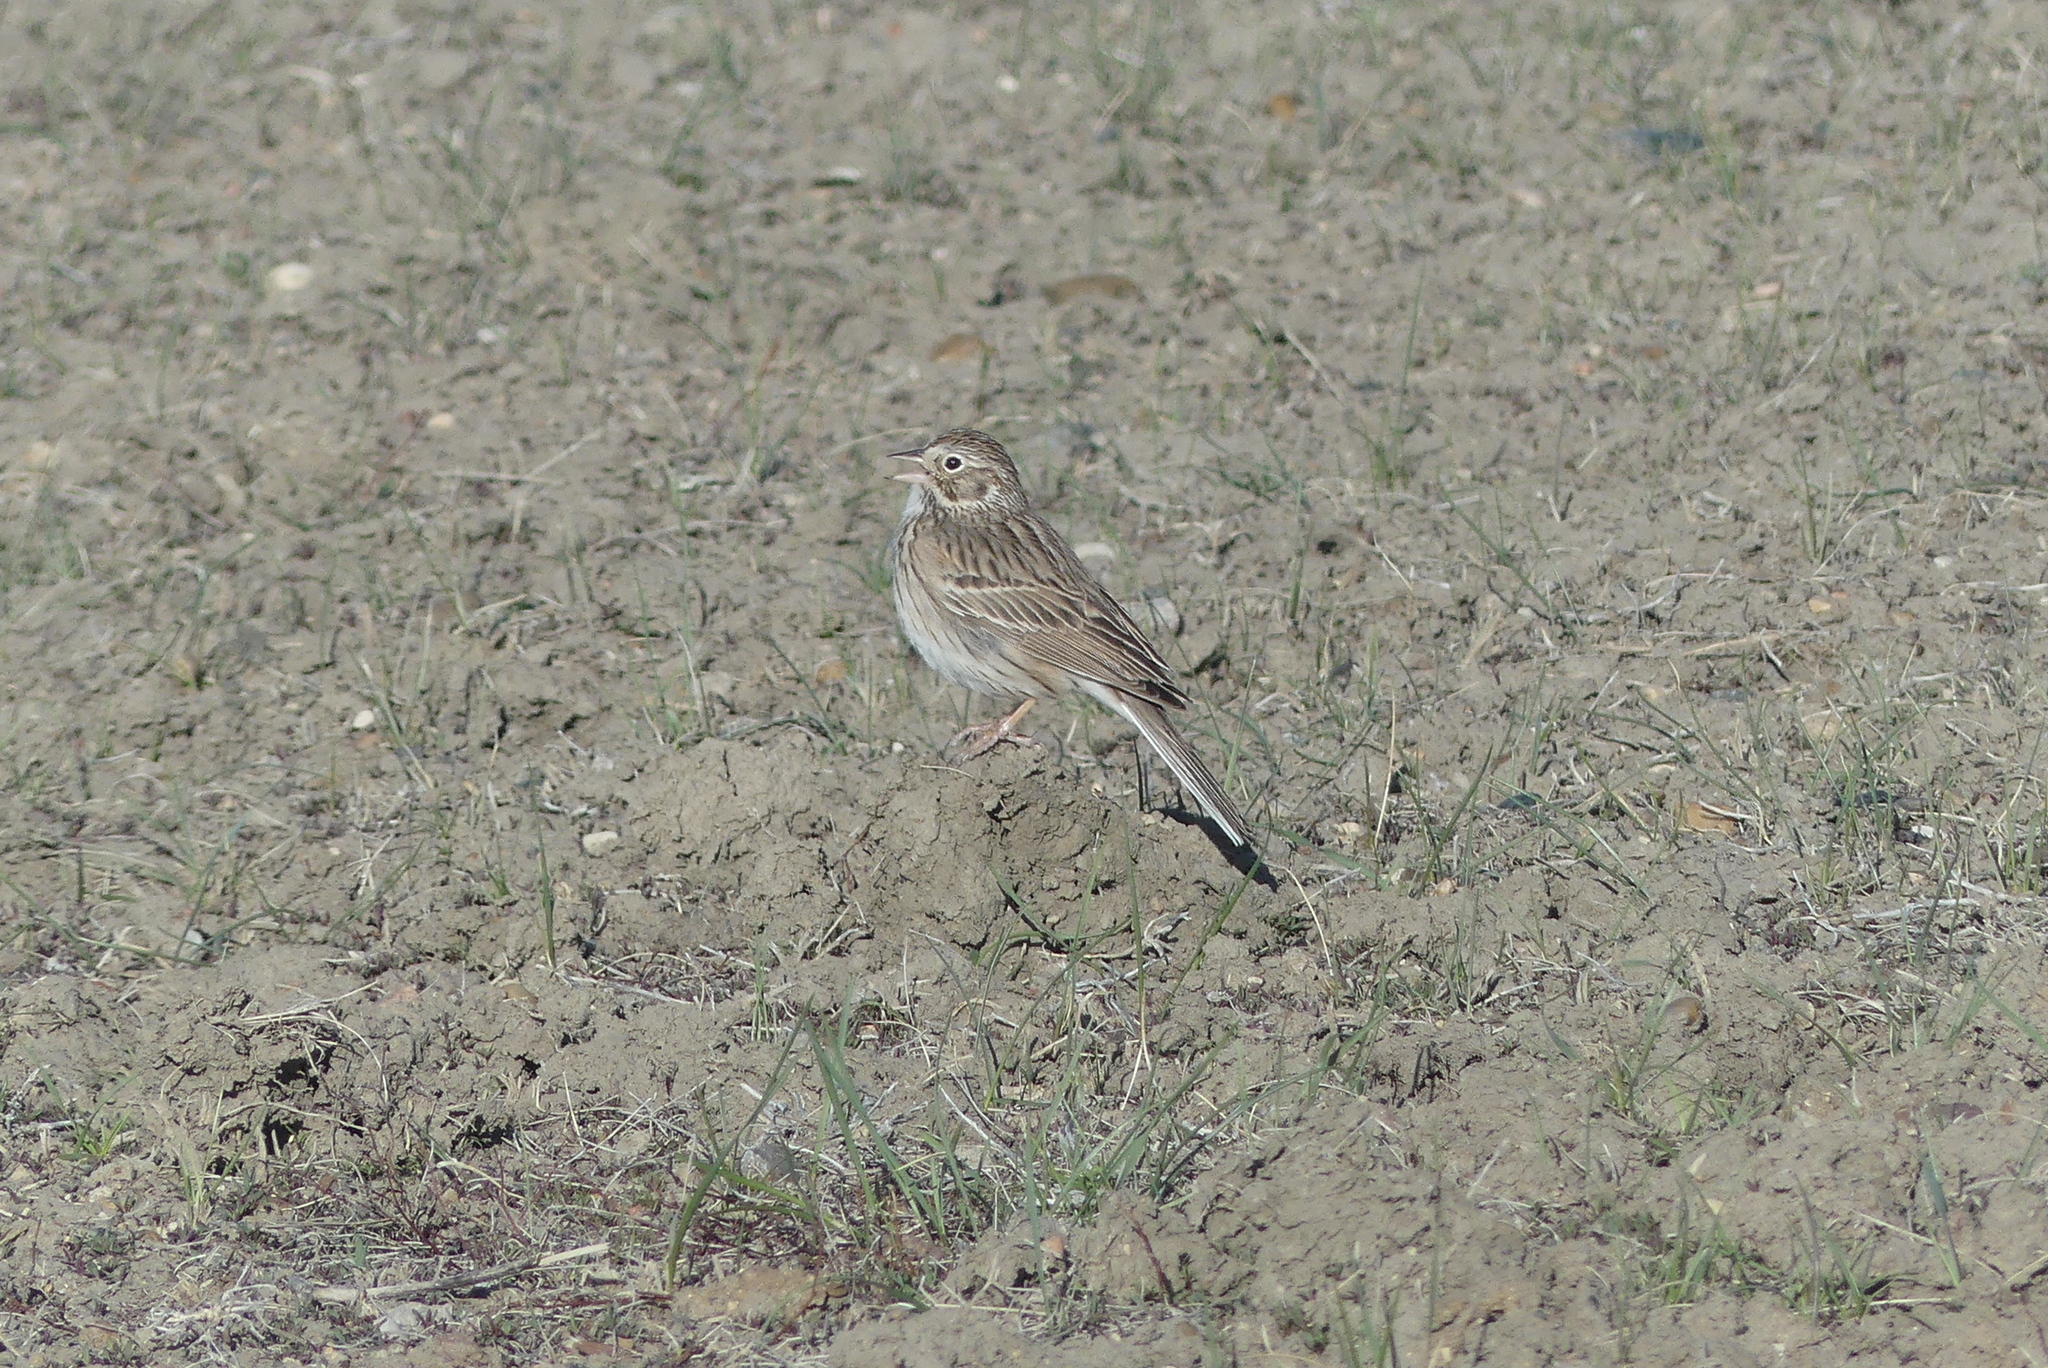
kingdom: Animalia
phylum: Chordata
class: Aves
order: Passeriformes
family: Passerellidae
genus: Pooecetes
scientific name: Pooecetes gramineus
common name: Vesper sparrow
